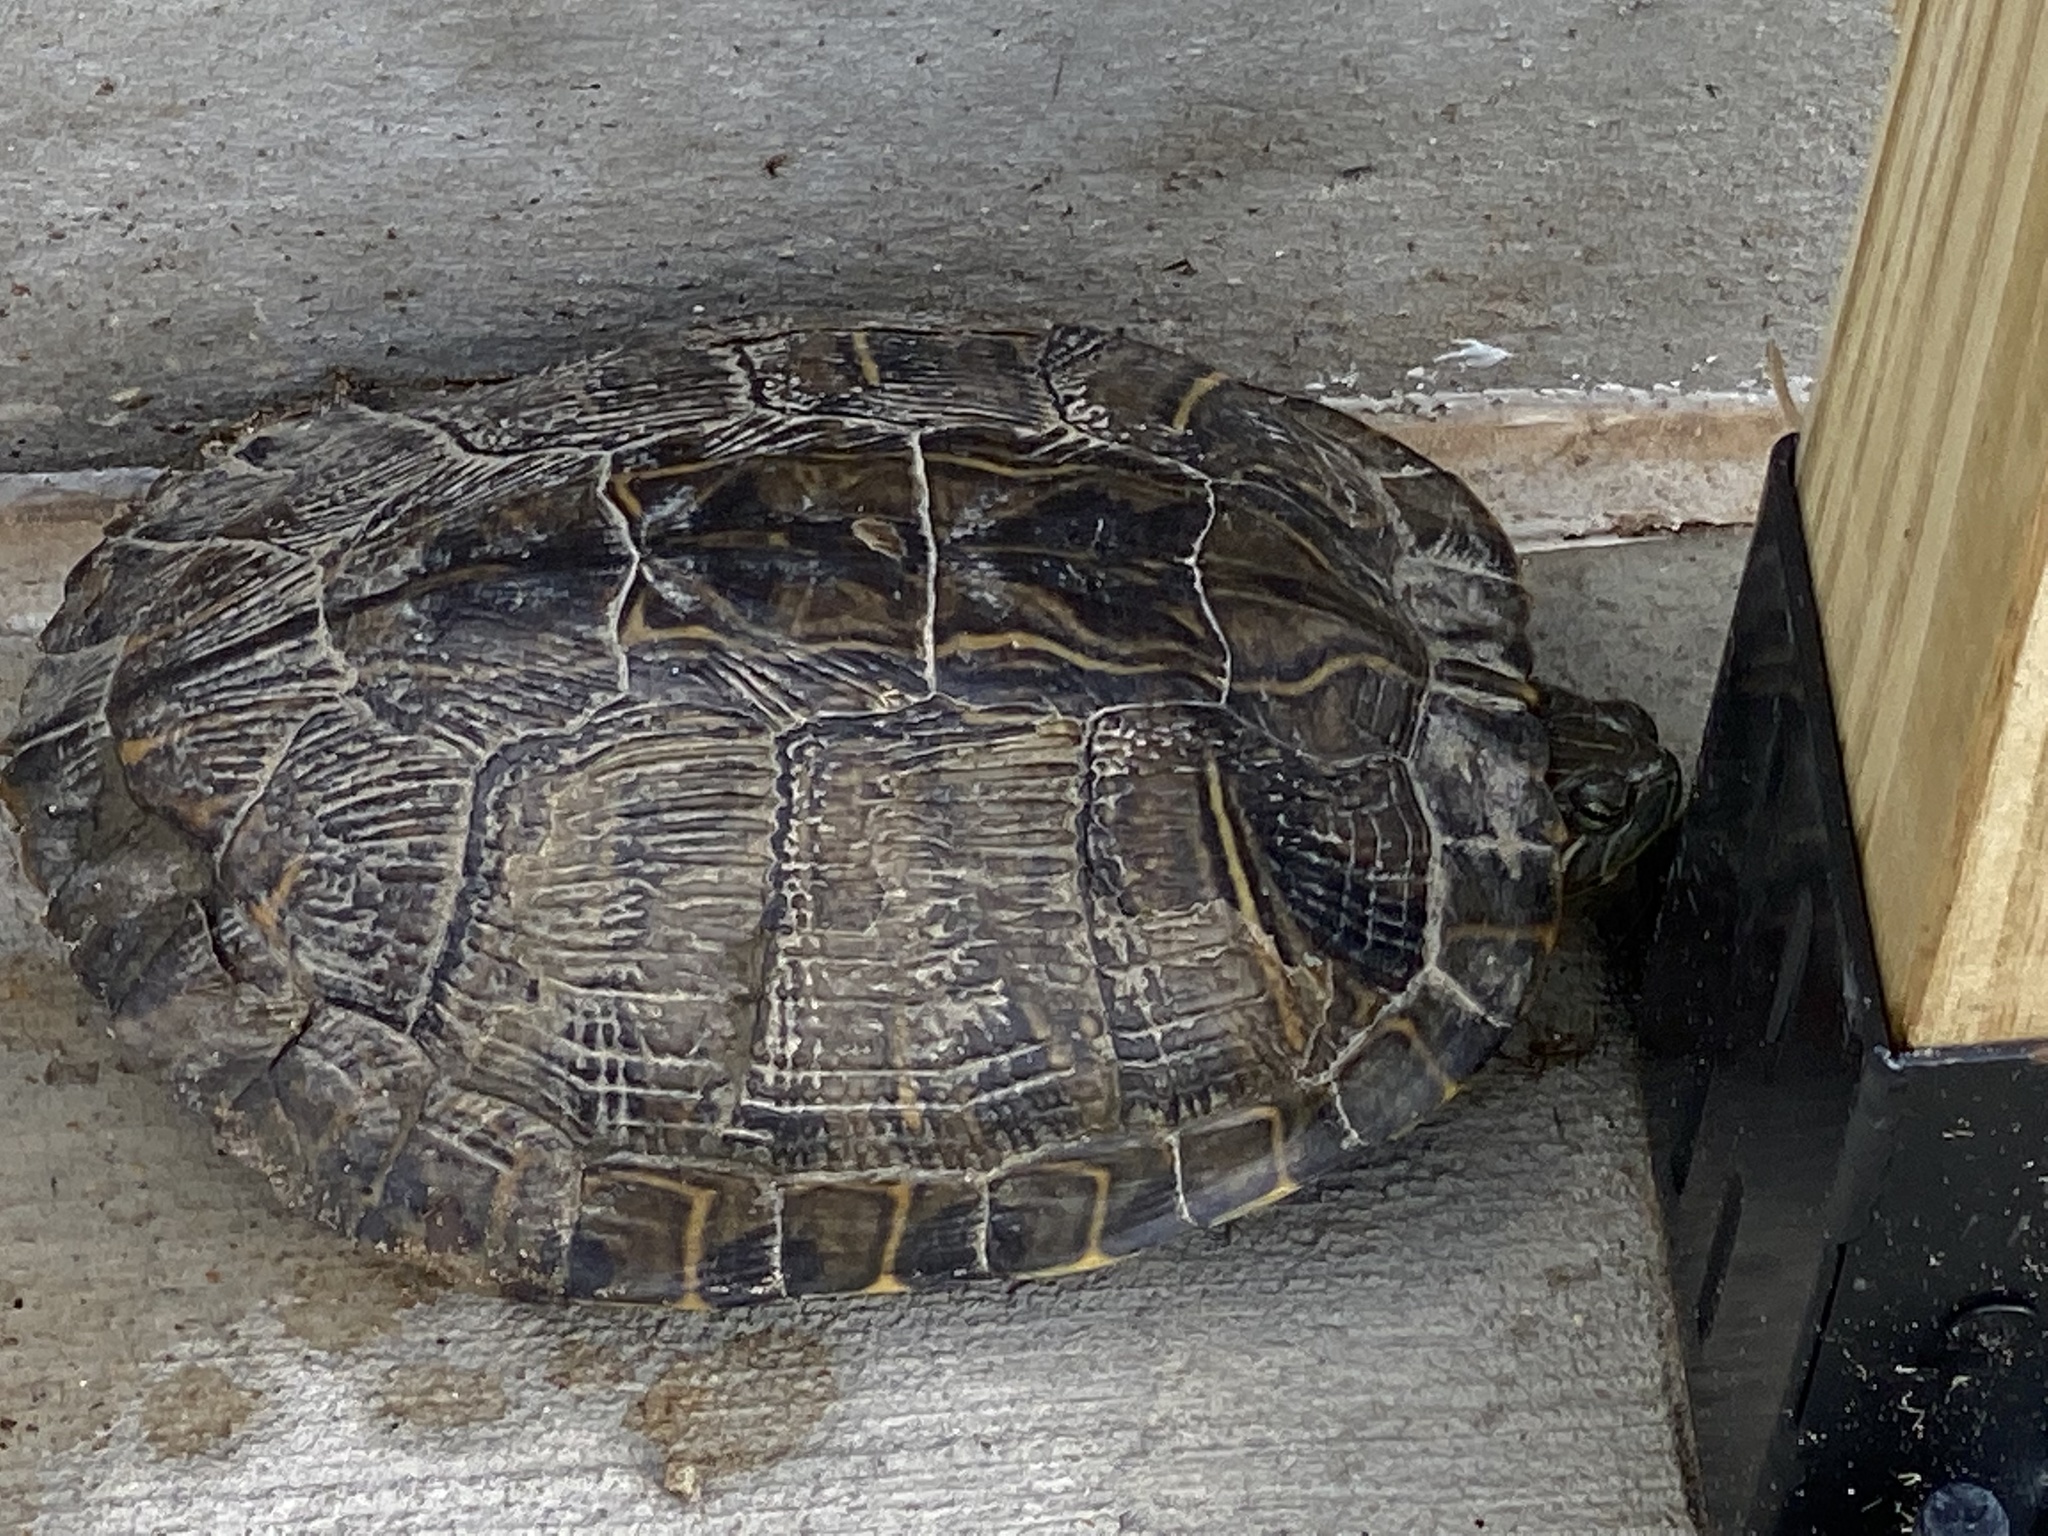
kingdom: Animalia
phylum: Chordata
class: Testudines
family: Emydidae
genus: Trachemys
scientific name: Trachemys scripta
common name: Slider
